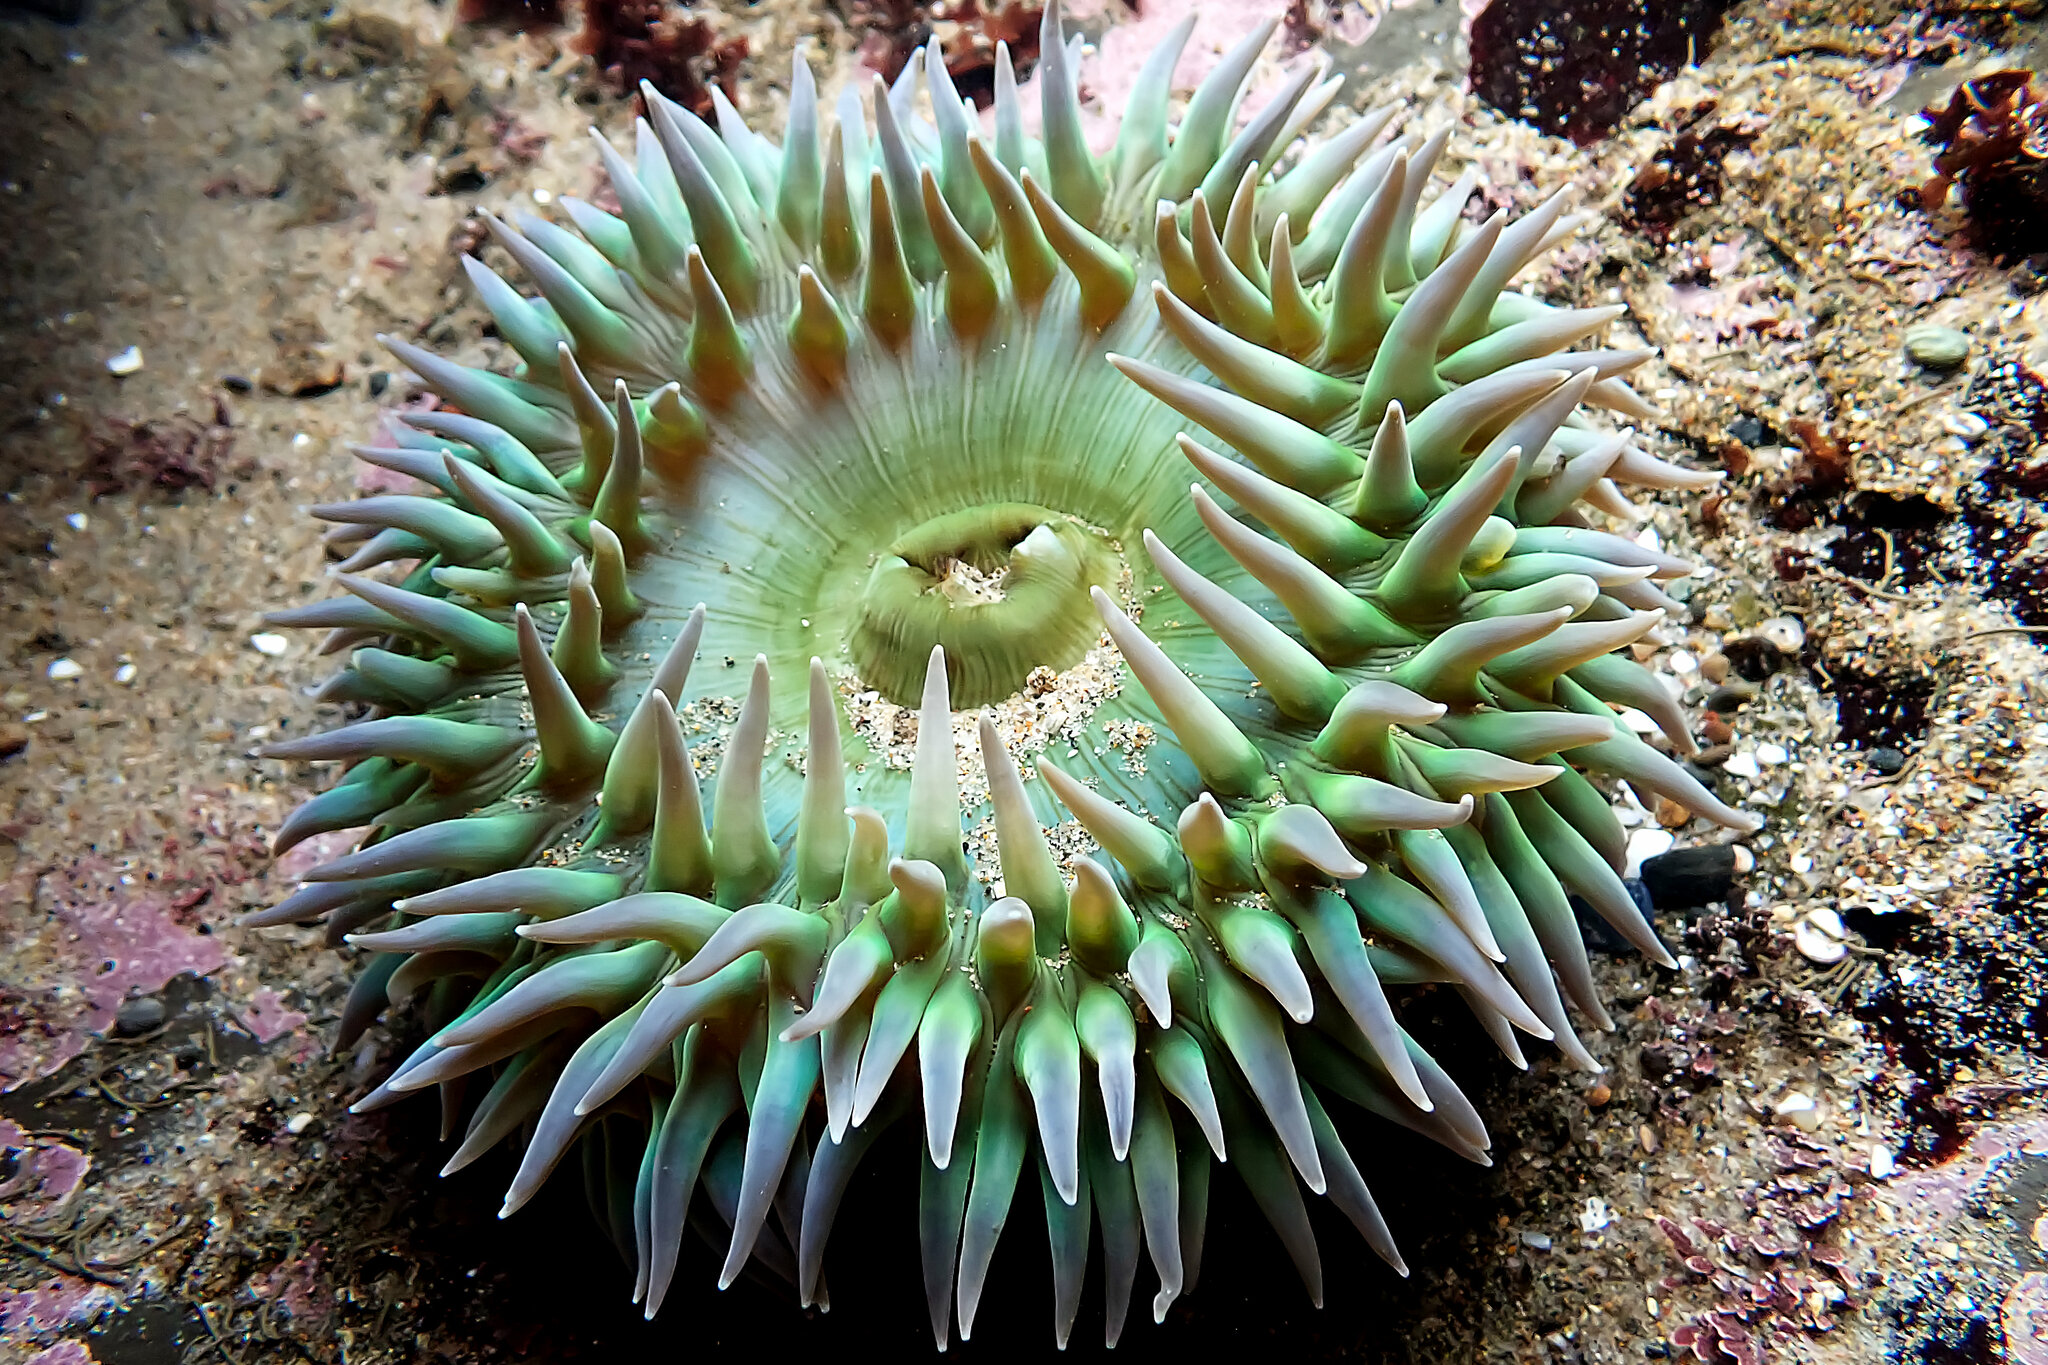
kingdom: Animalia
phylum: Cnidaria
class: Anthozoa
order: Actiniaria
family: Actiniidae
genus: Anthopleura
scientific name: Anthopleura xanthogrammica
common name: Giant green anemone
